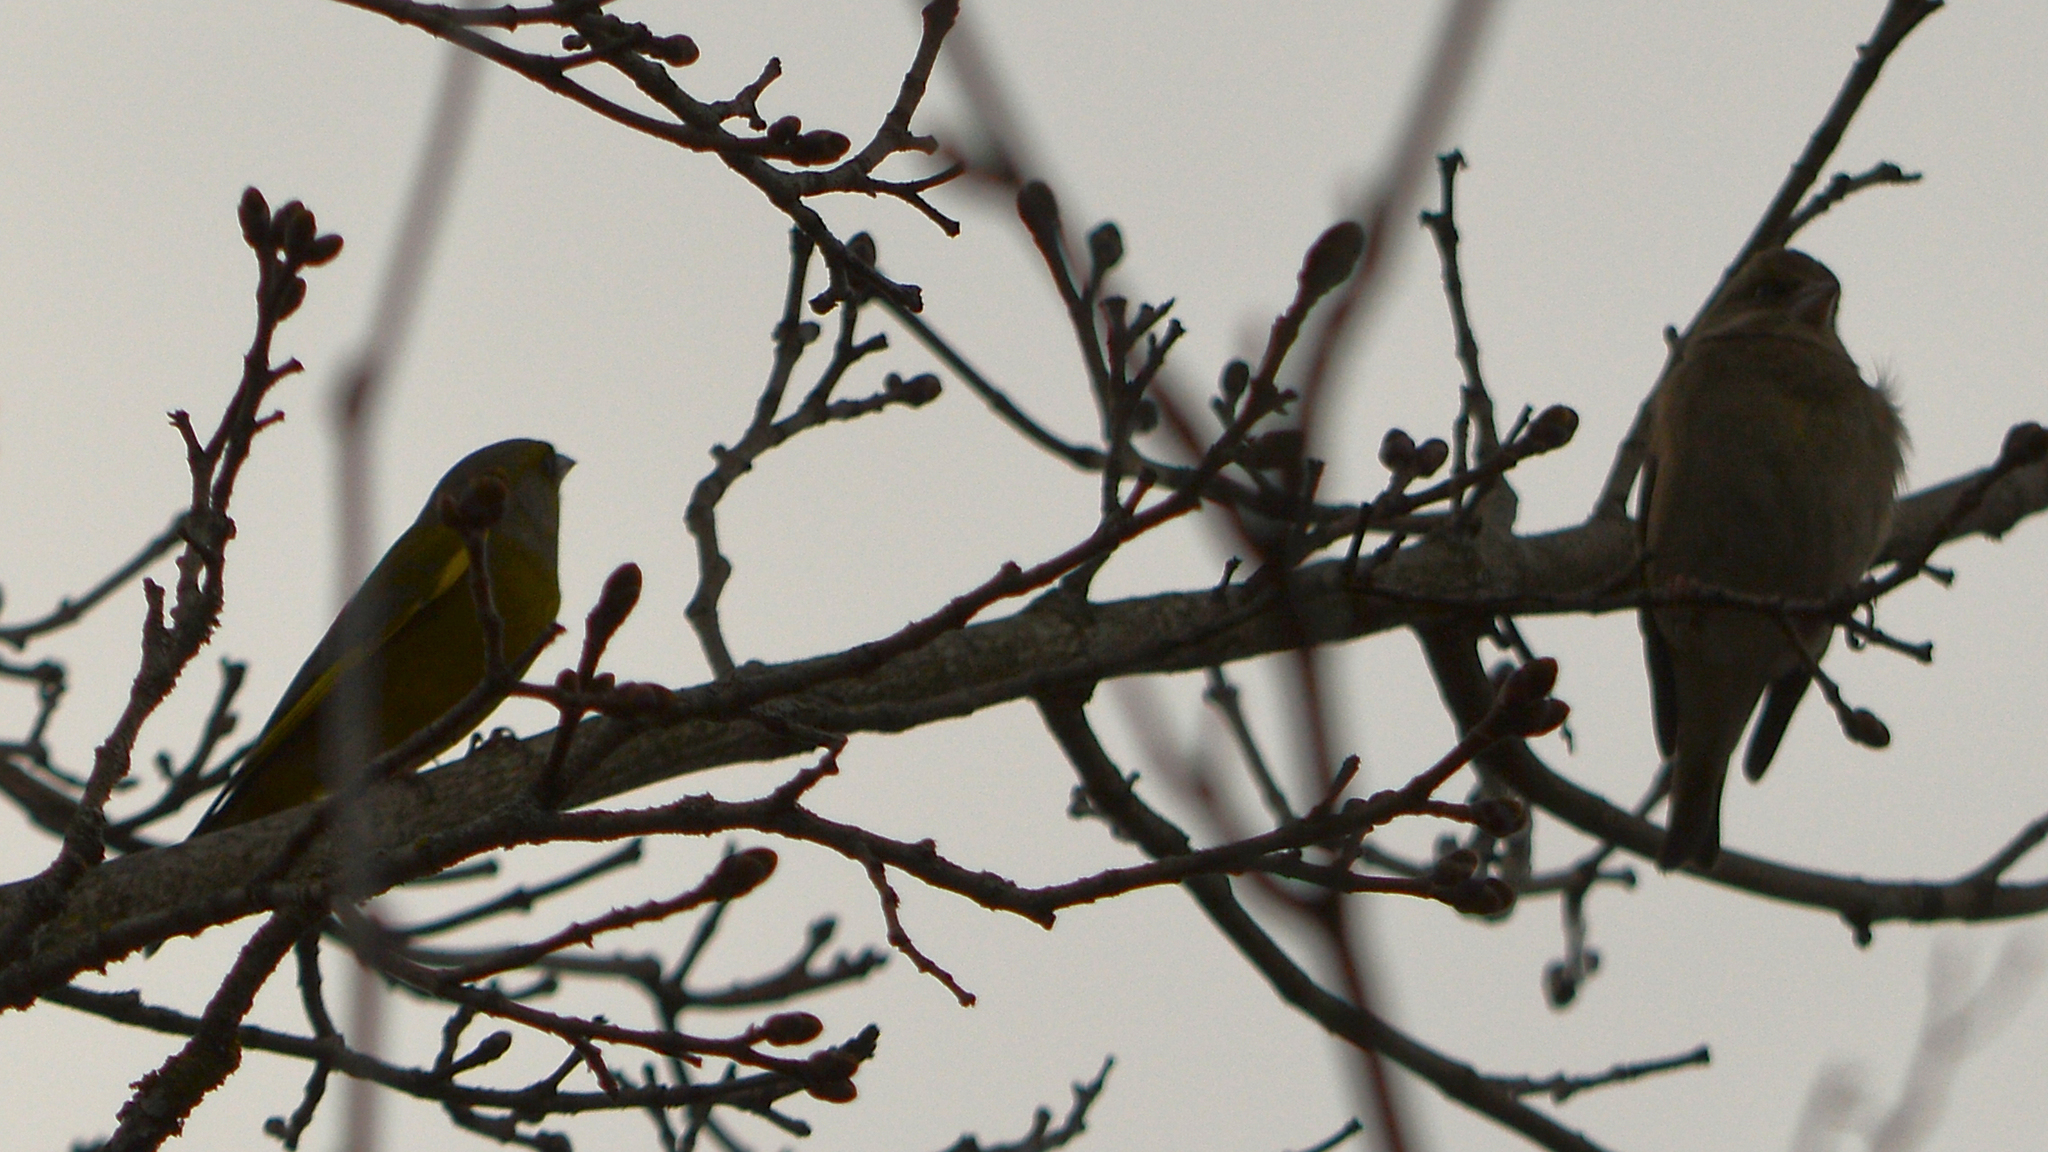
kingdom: Plantae
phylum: Tracheophyta
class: Liliopsida
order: Poales
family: Poaceae
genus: Chloris
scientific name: Chloris chloris
